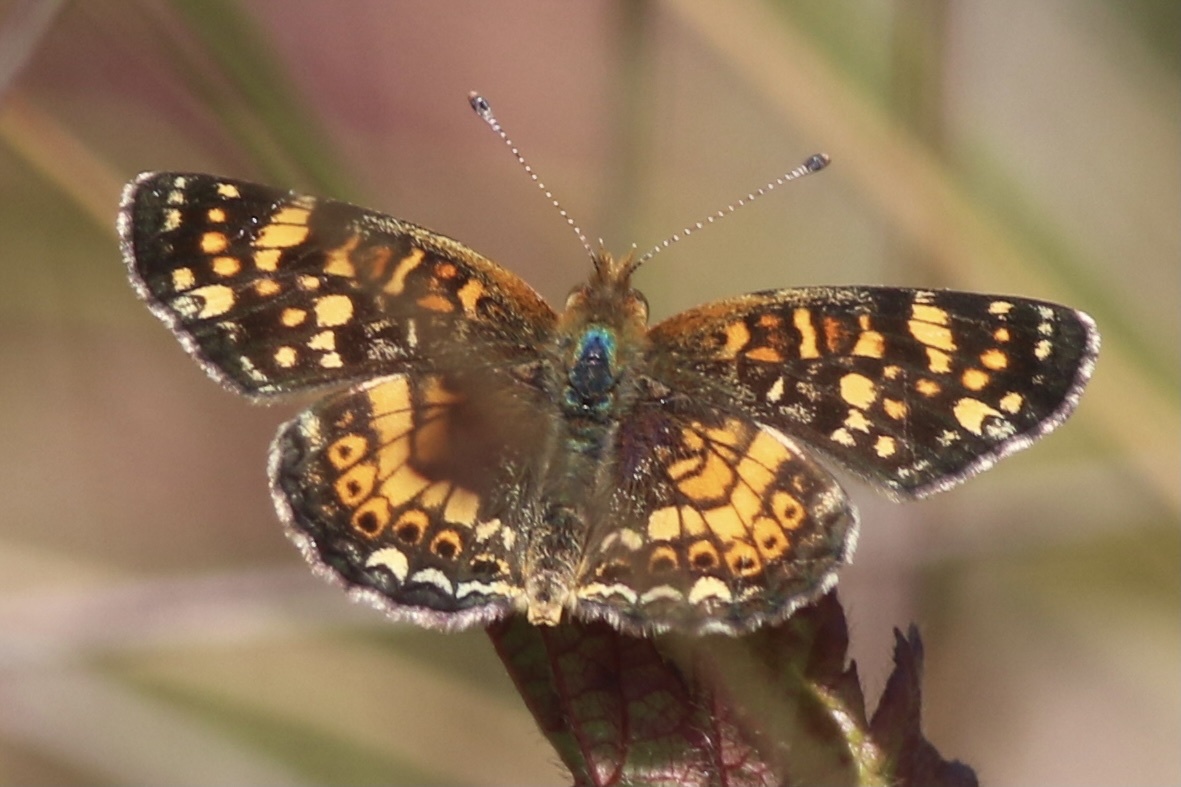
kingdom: Animalia
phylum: Arthropoda
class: Insecta
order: Lepidoptera
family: Nymphalidae
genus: Phyciodes
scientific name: Phyciodes tharos
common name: Pearl crescent
